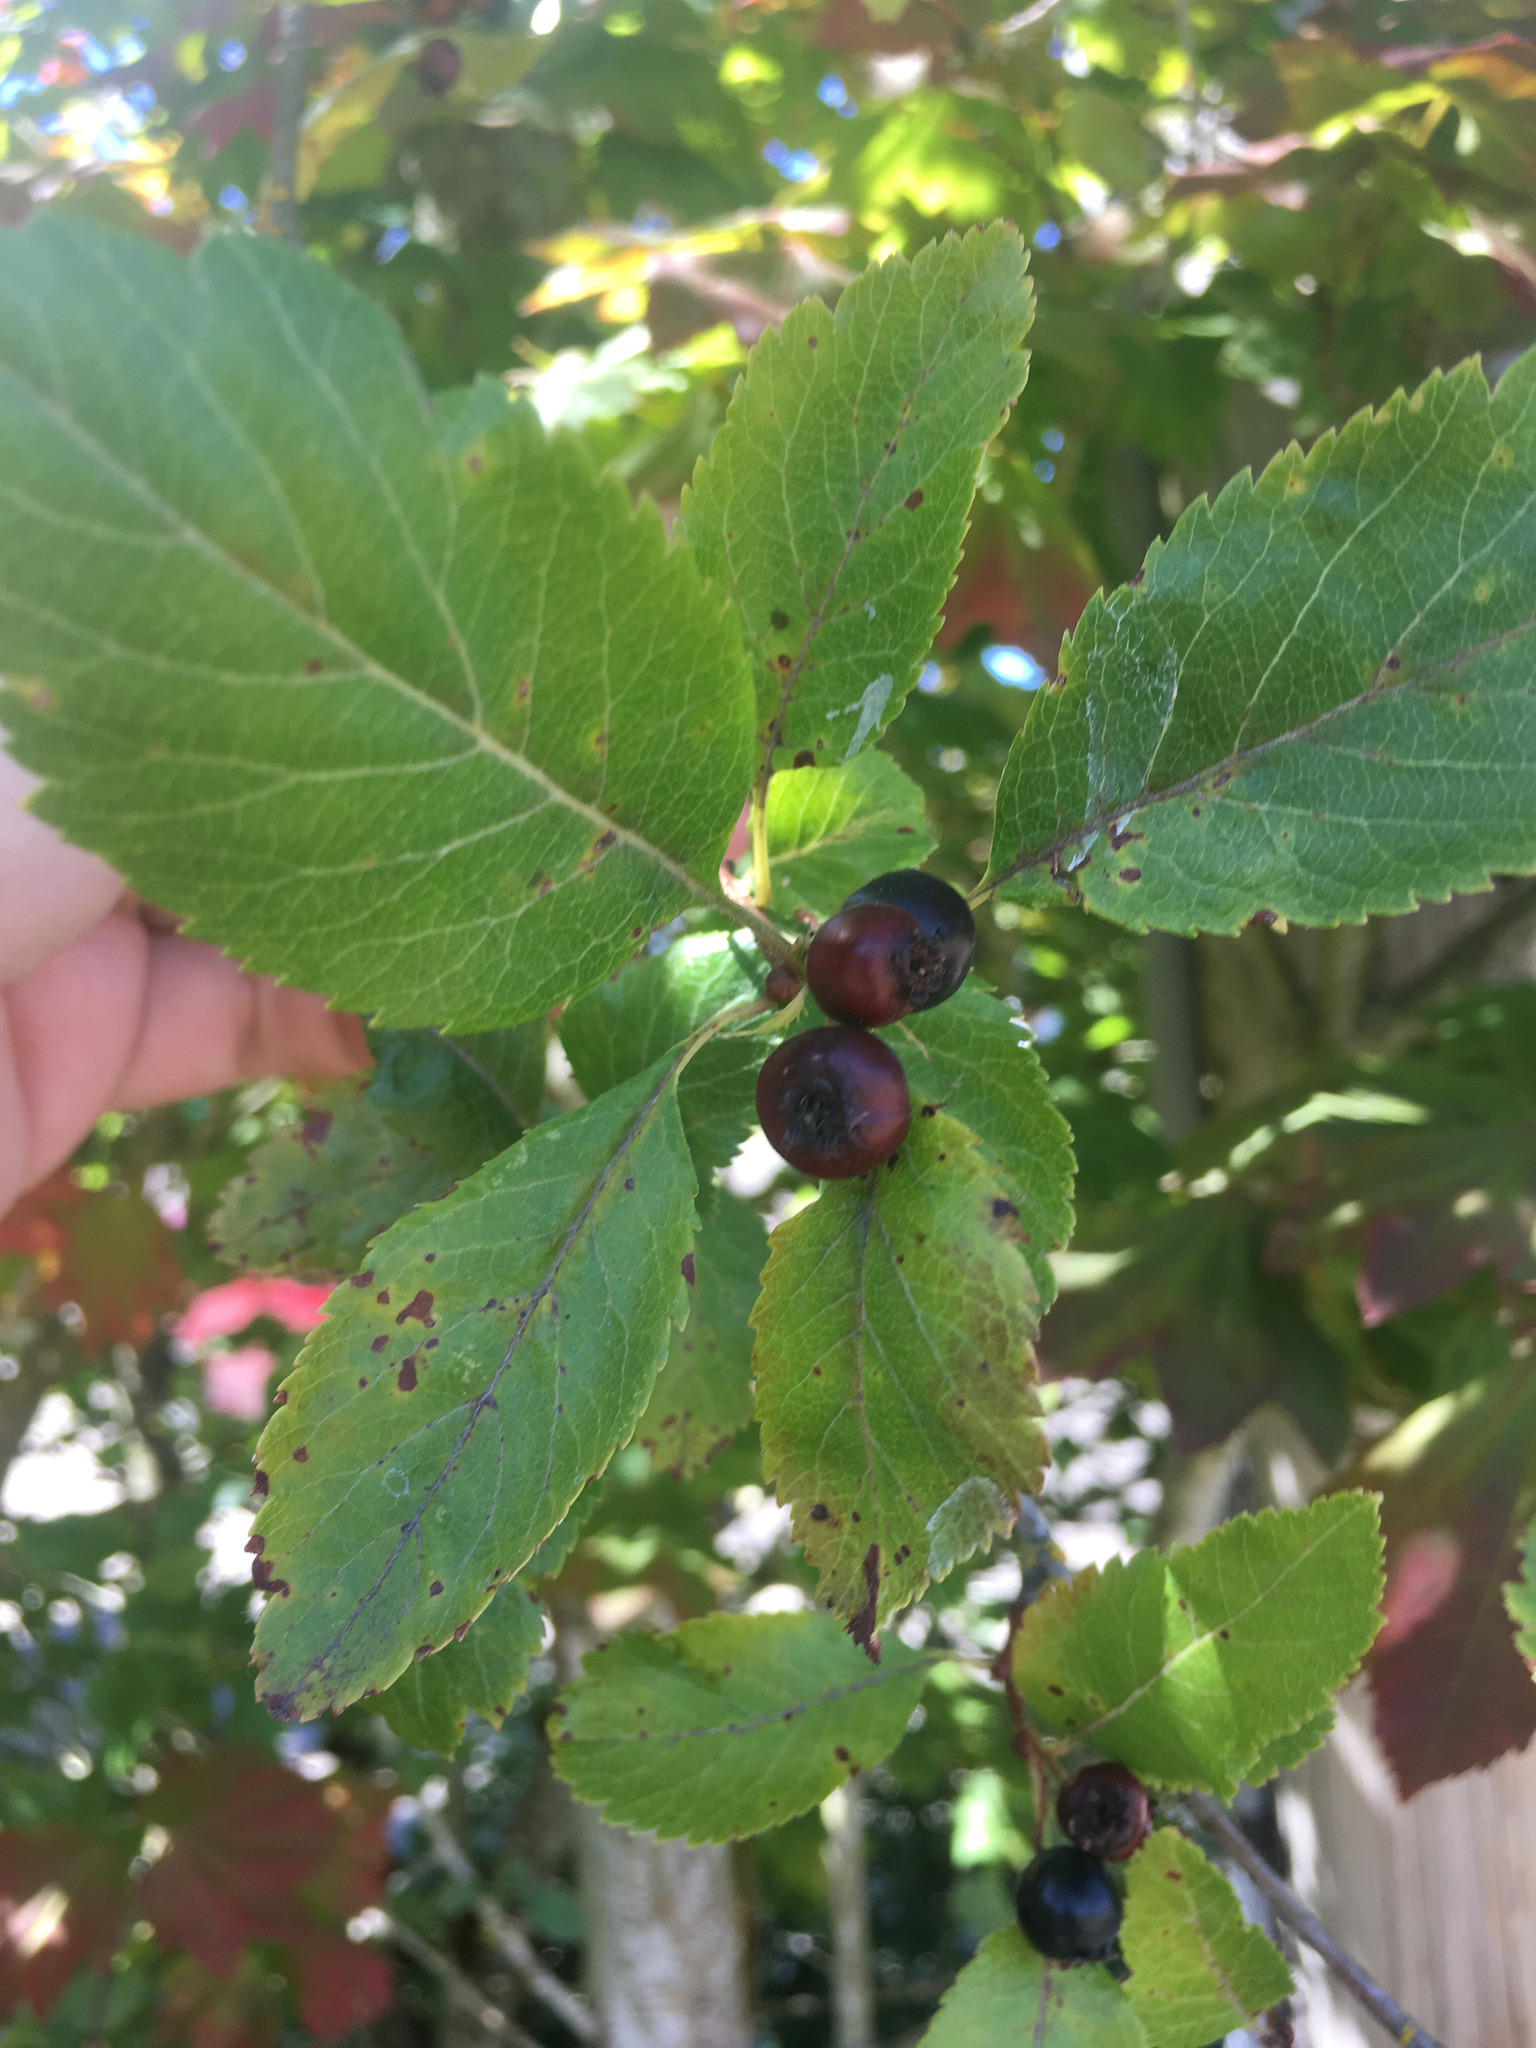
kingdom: Plantae
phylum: Tracheophyta
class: Magnoliopsida
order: Rosales
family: Rosaceae
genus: Crataegus
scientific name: Crataegus gaylussacia
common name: Huckleberry hawthorn
